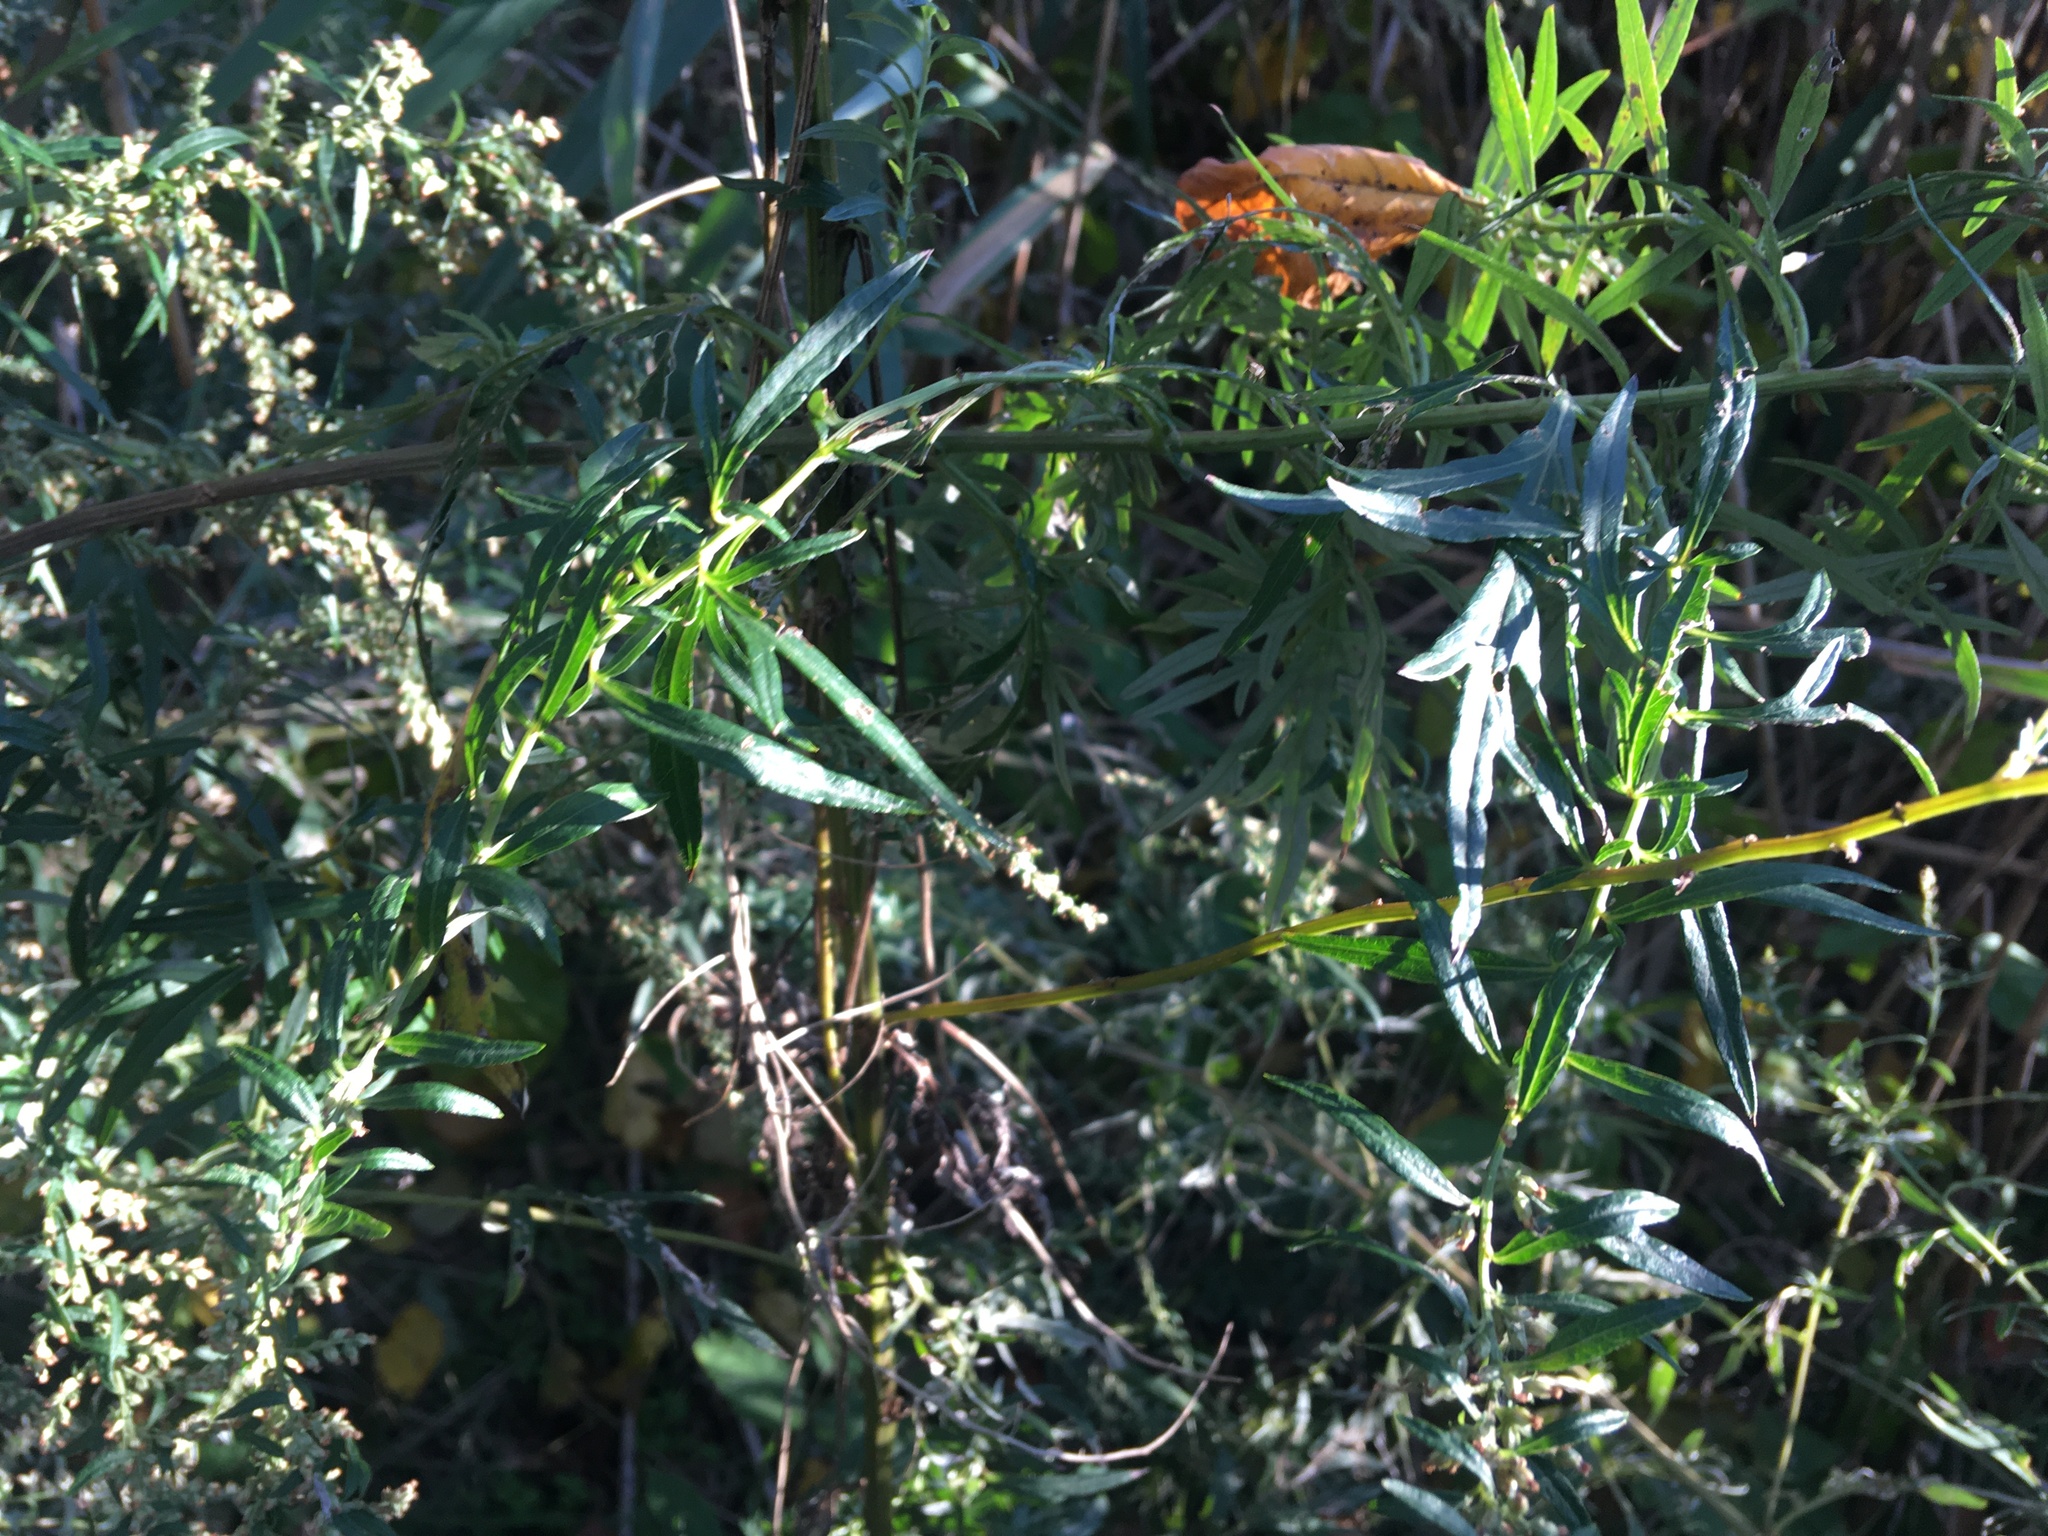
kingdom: Plantae
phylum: Tracheophyta
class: Magnoliopsida
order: Asterales
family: Asteraceae
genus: Artemisia
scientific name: Artemisia vulgaris
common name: Mugwort
